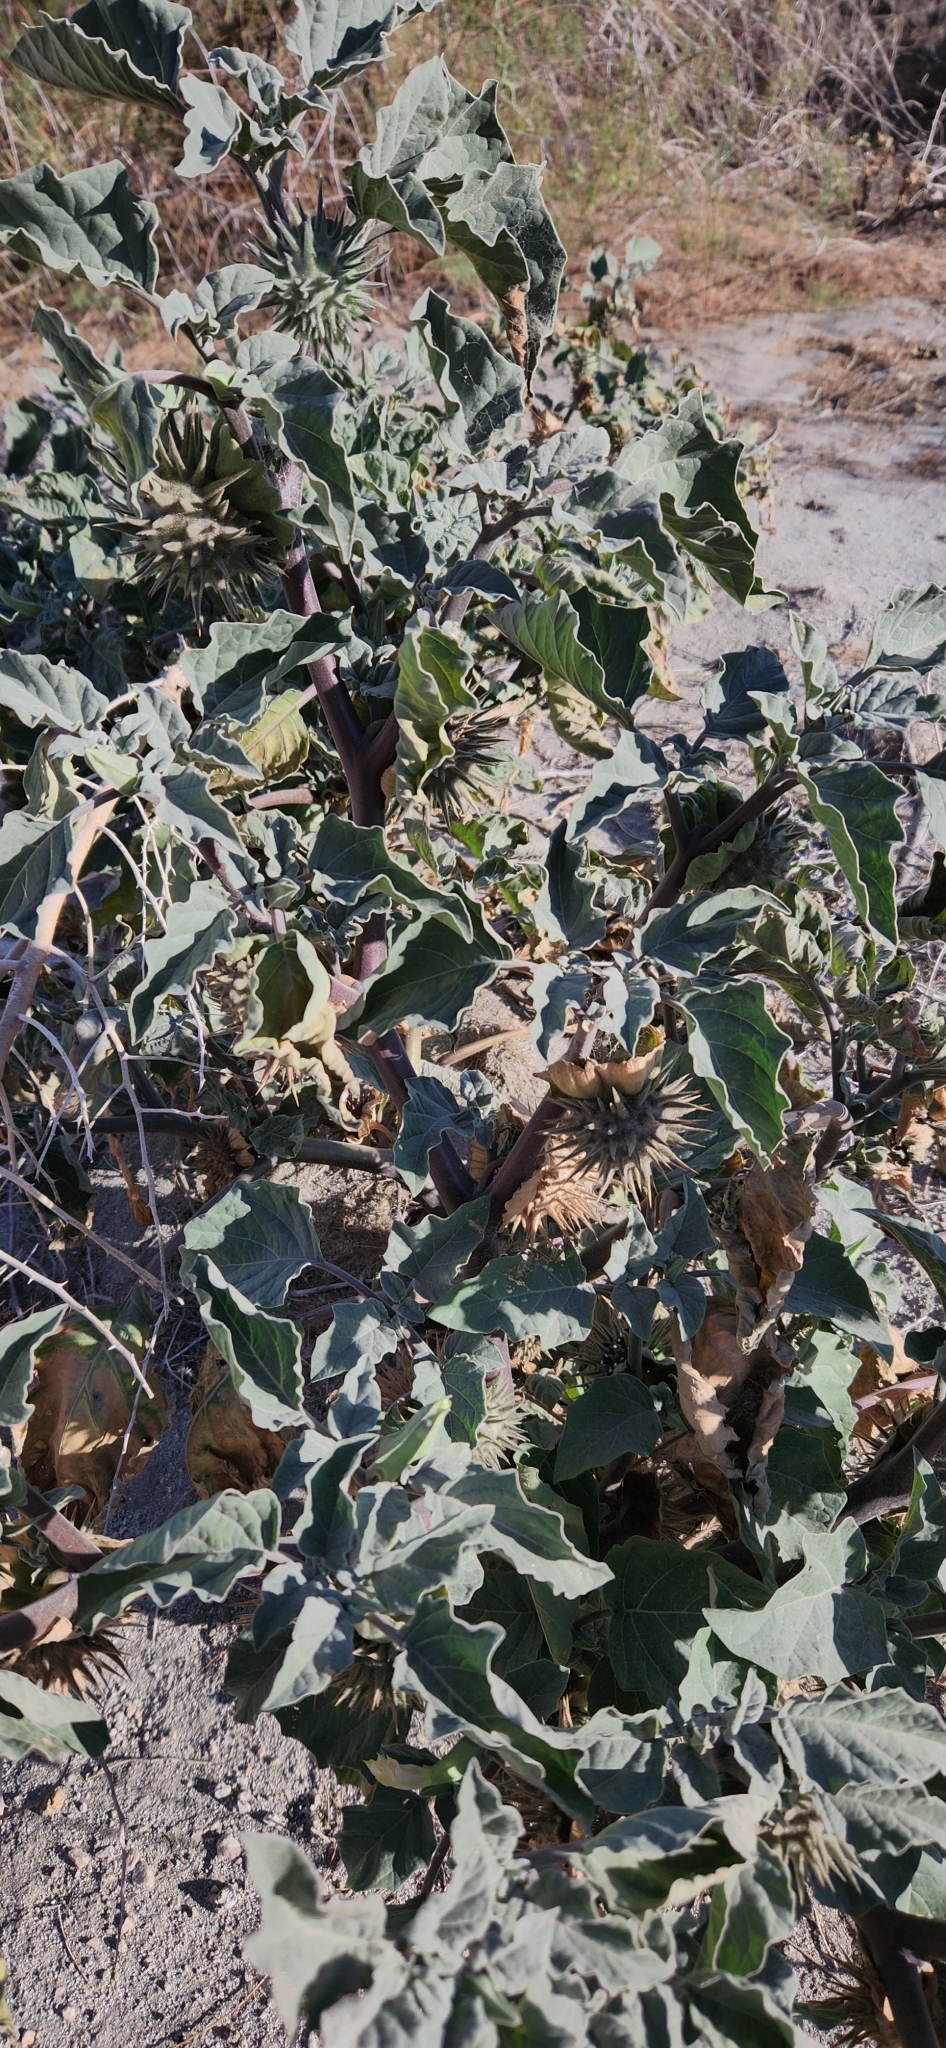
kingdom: Plantae
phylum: Tracheophyta
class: Magnoliopsida
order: Solanales
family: Solanaceae
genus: Datura
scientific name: Datura discolor
